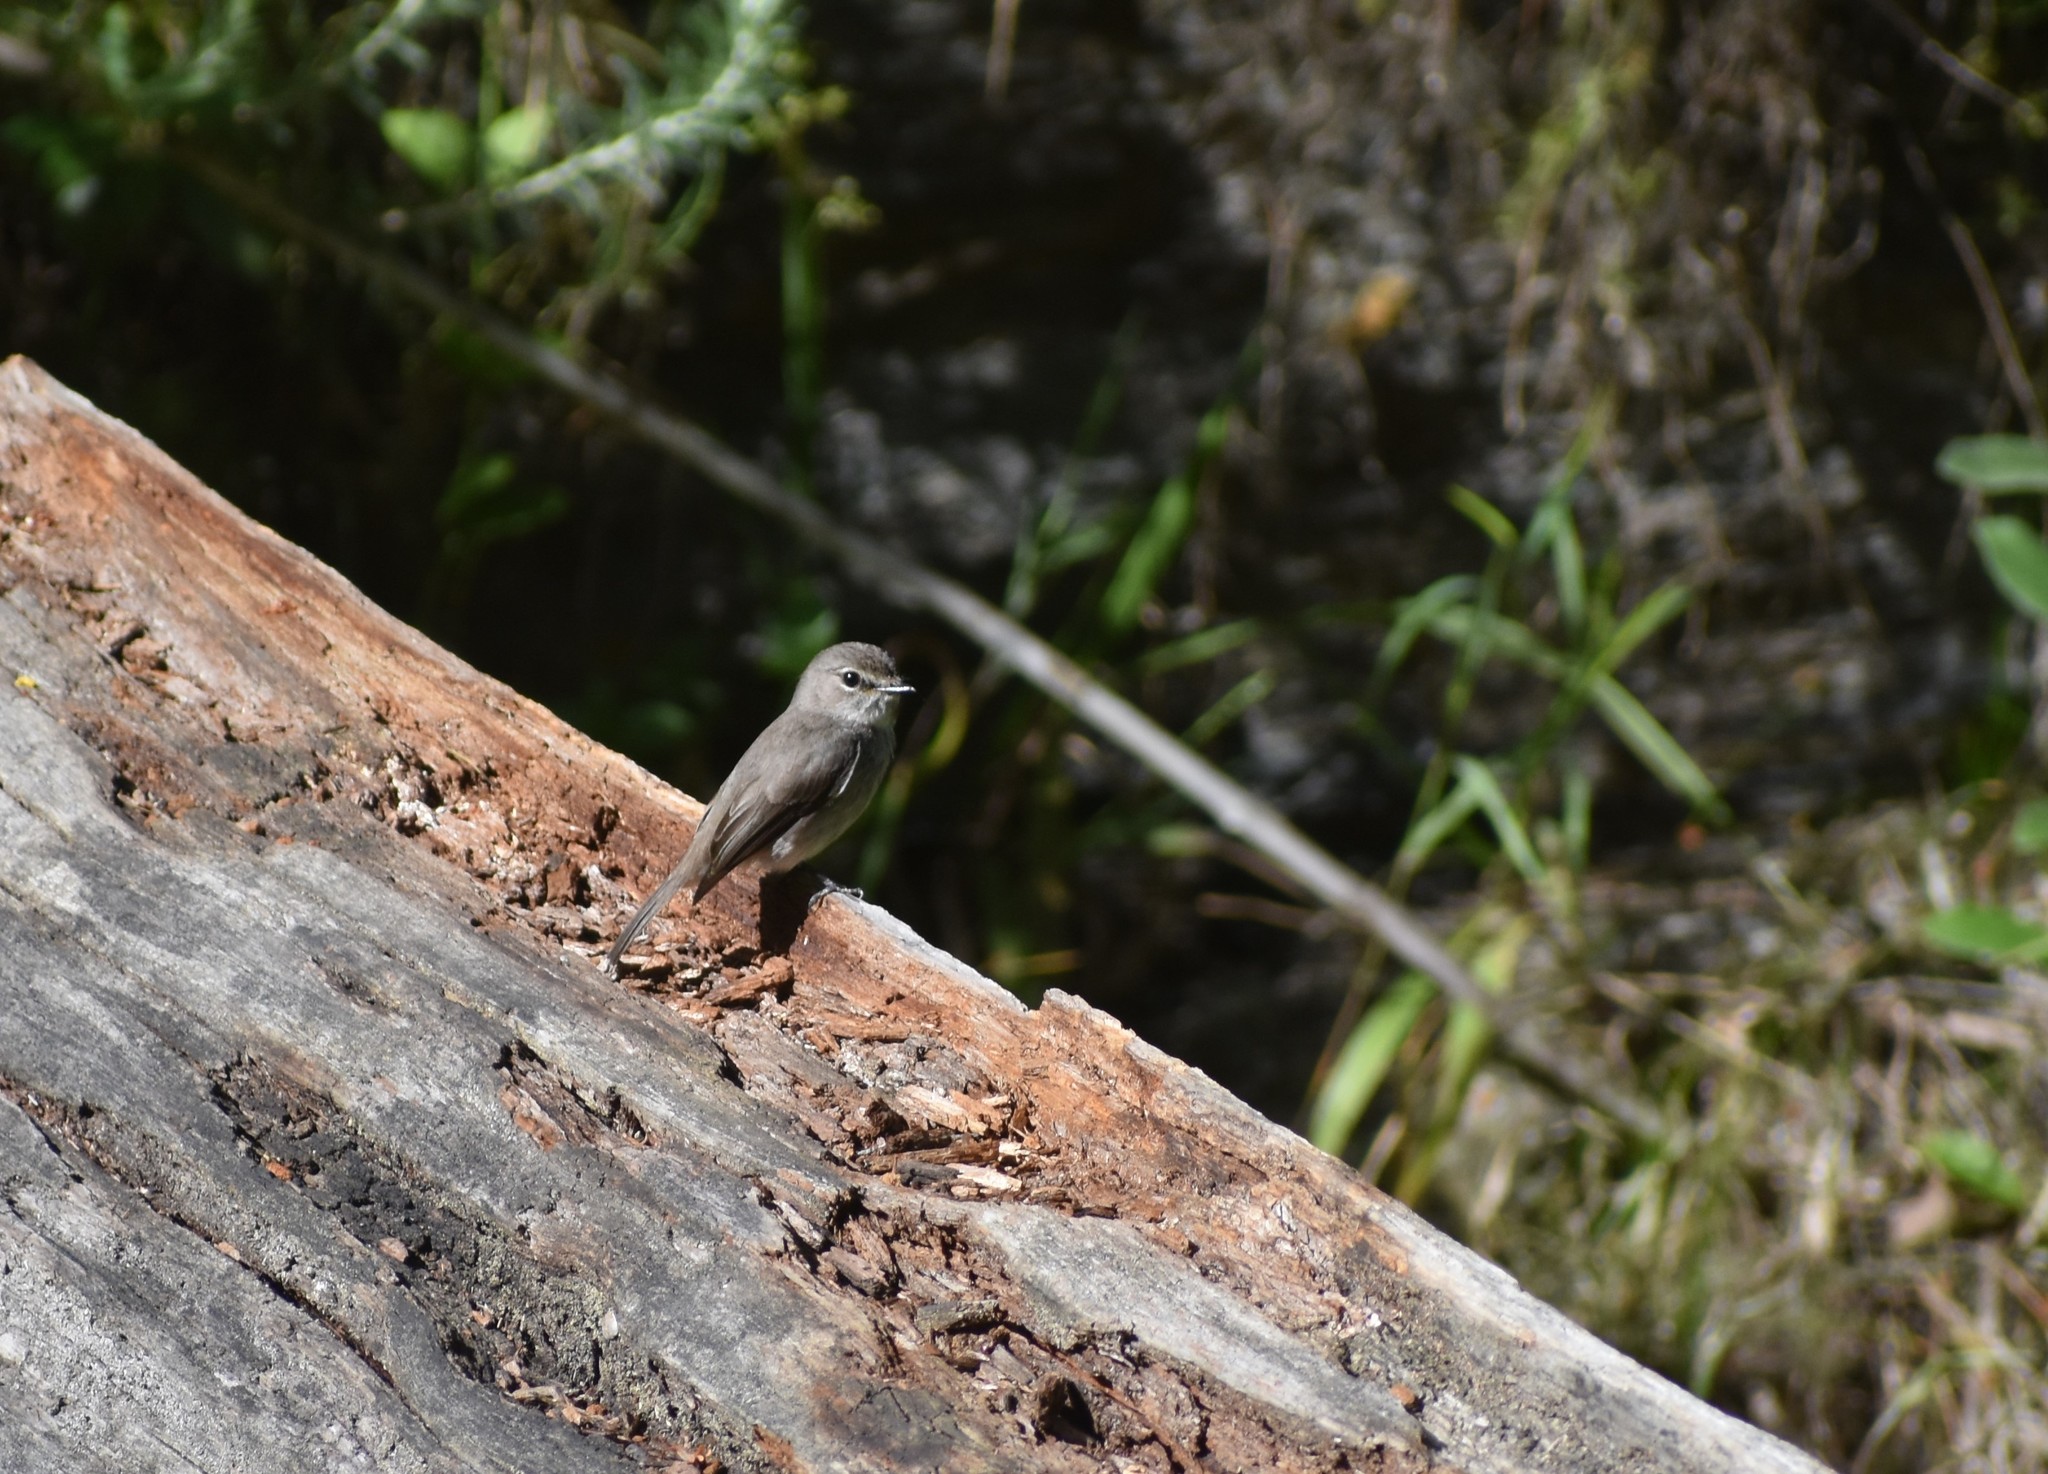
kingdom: Animalia
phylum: Chordata
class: Aves
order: Passeriformes
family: Muscicapidae
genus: Muscicapa
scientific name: Muscicapa adusta
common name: African dusky flycatcher
